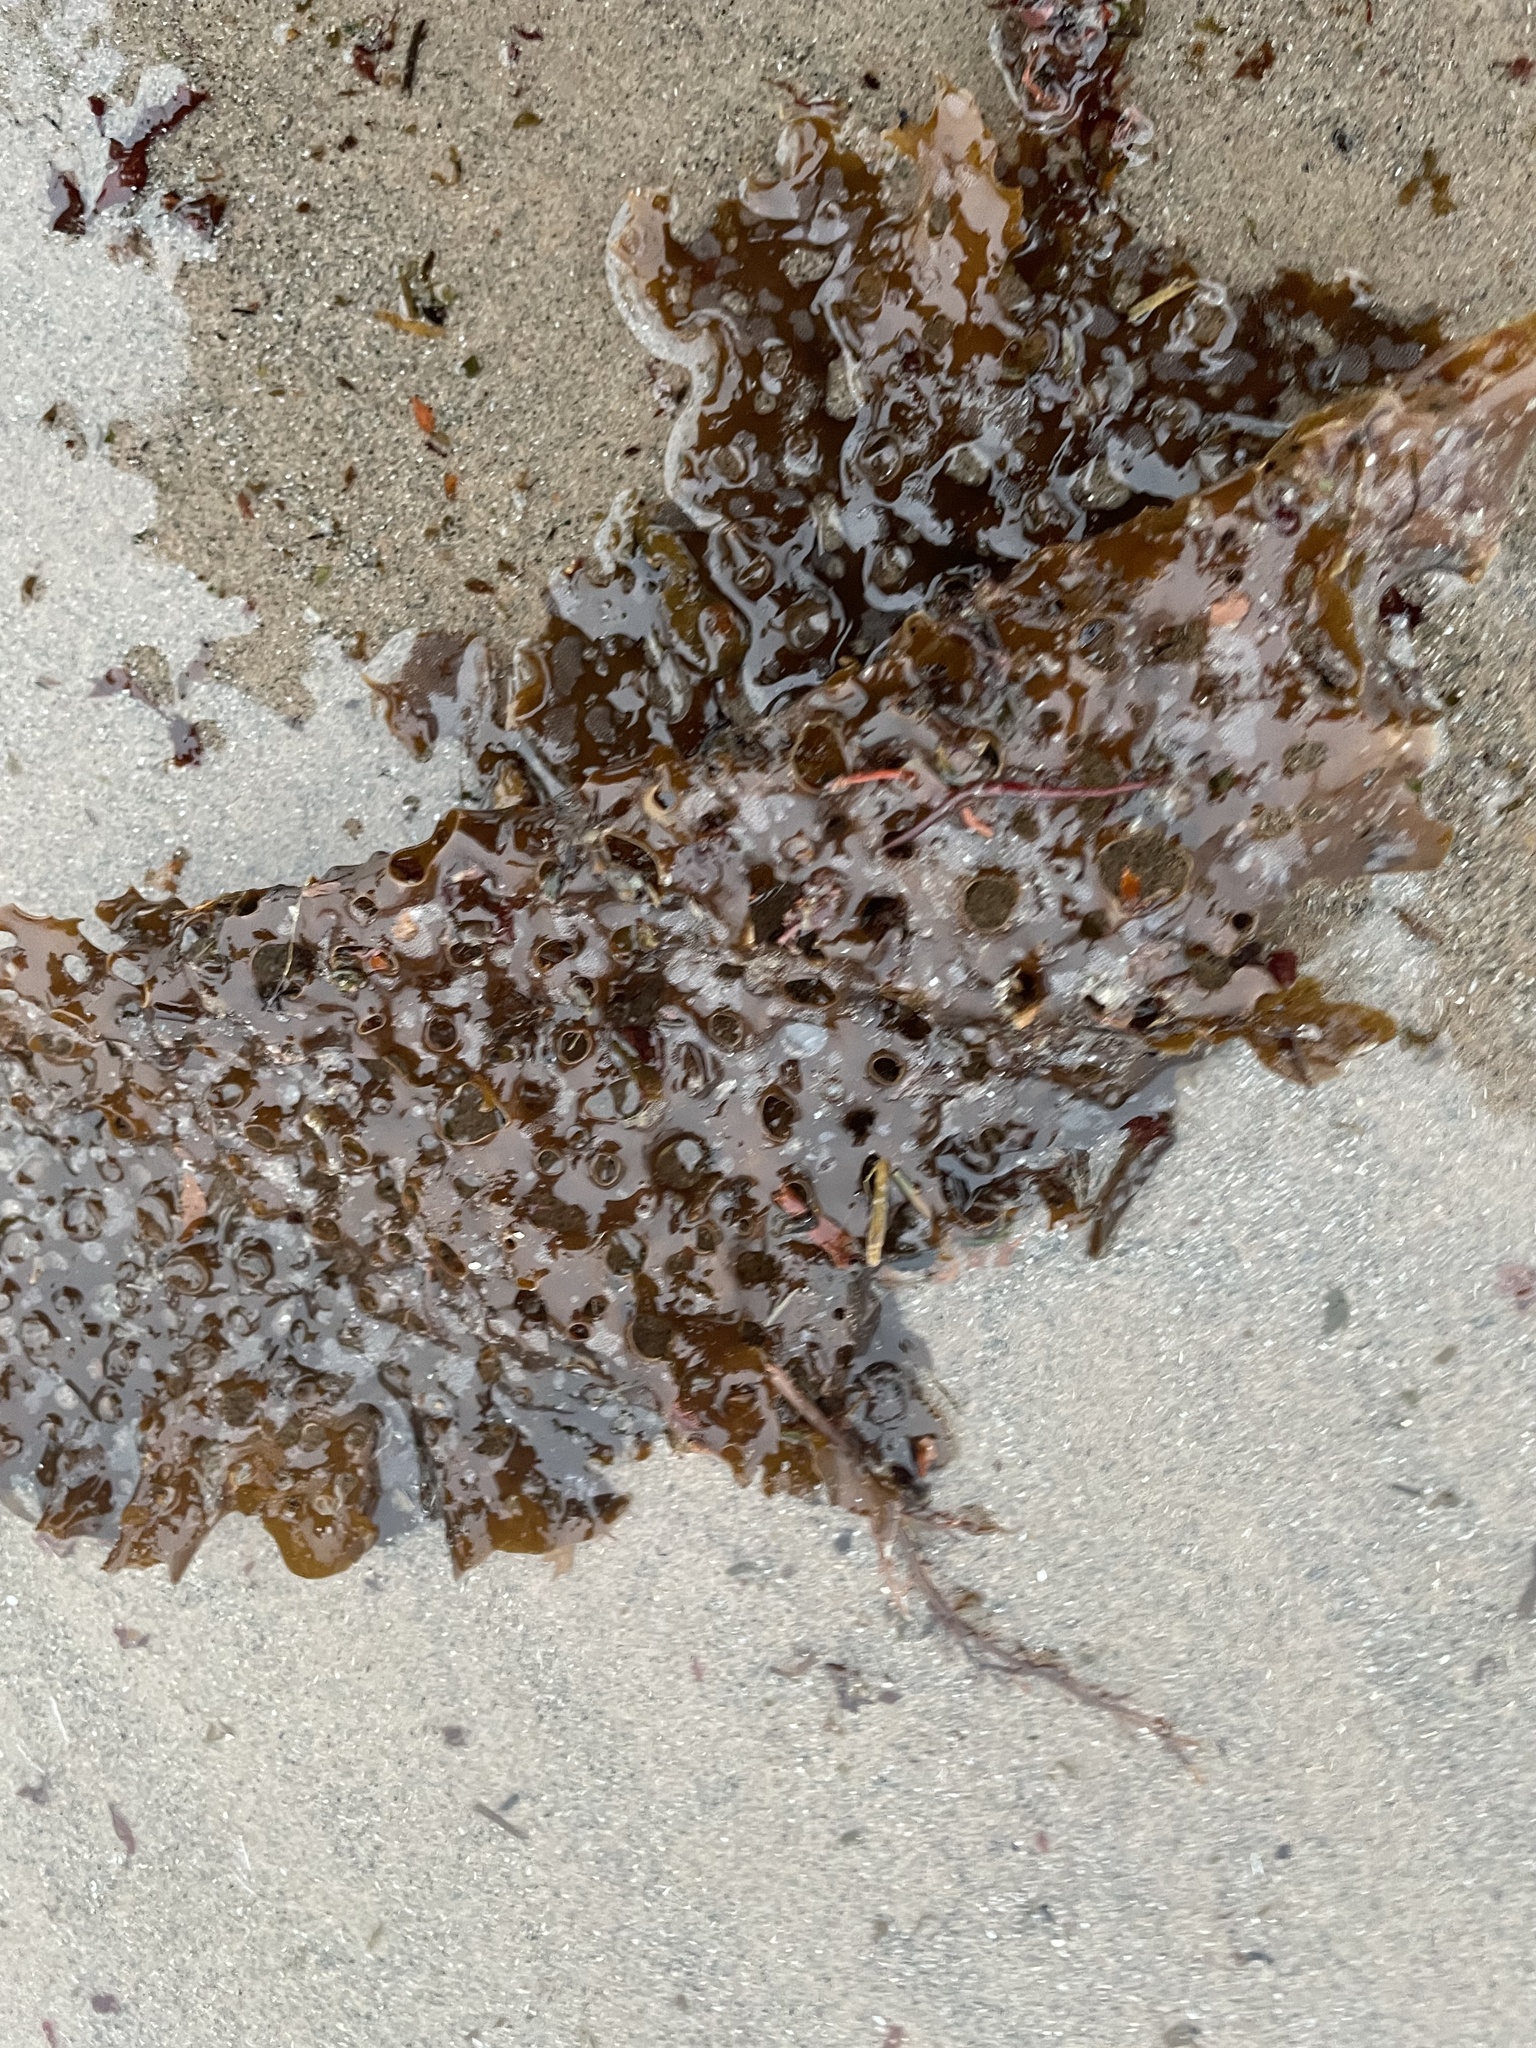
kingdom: Chromista
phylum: Ochrophyta
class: Phaeophyceae
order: Laminariales
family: Costariaceae
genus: Agarum
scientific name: Agarum clathratum
